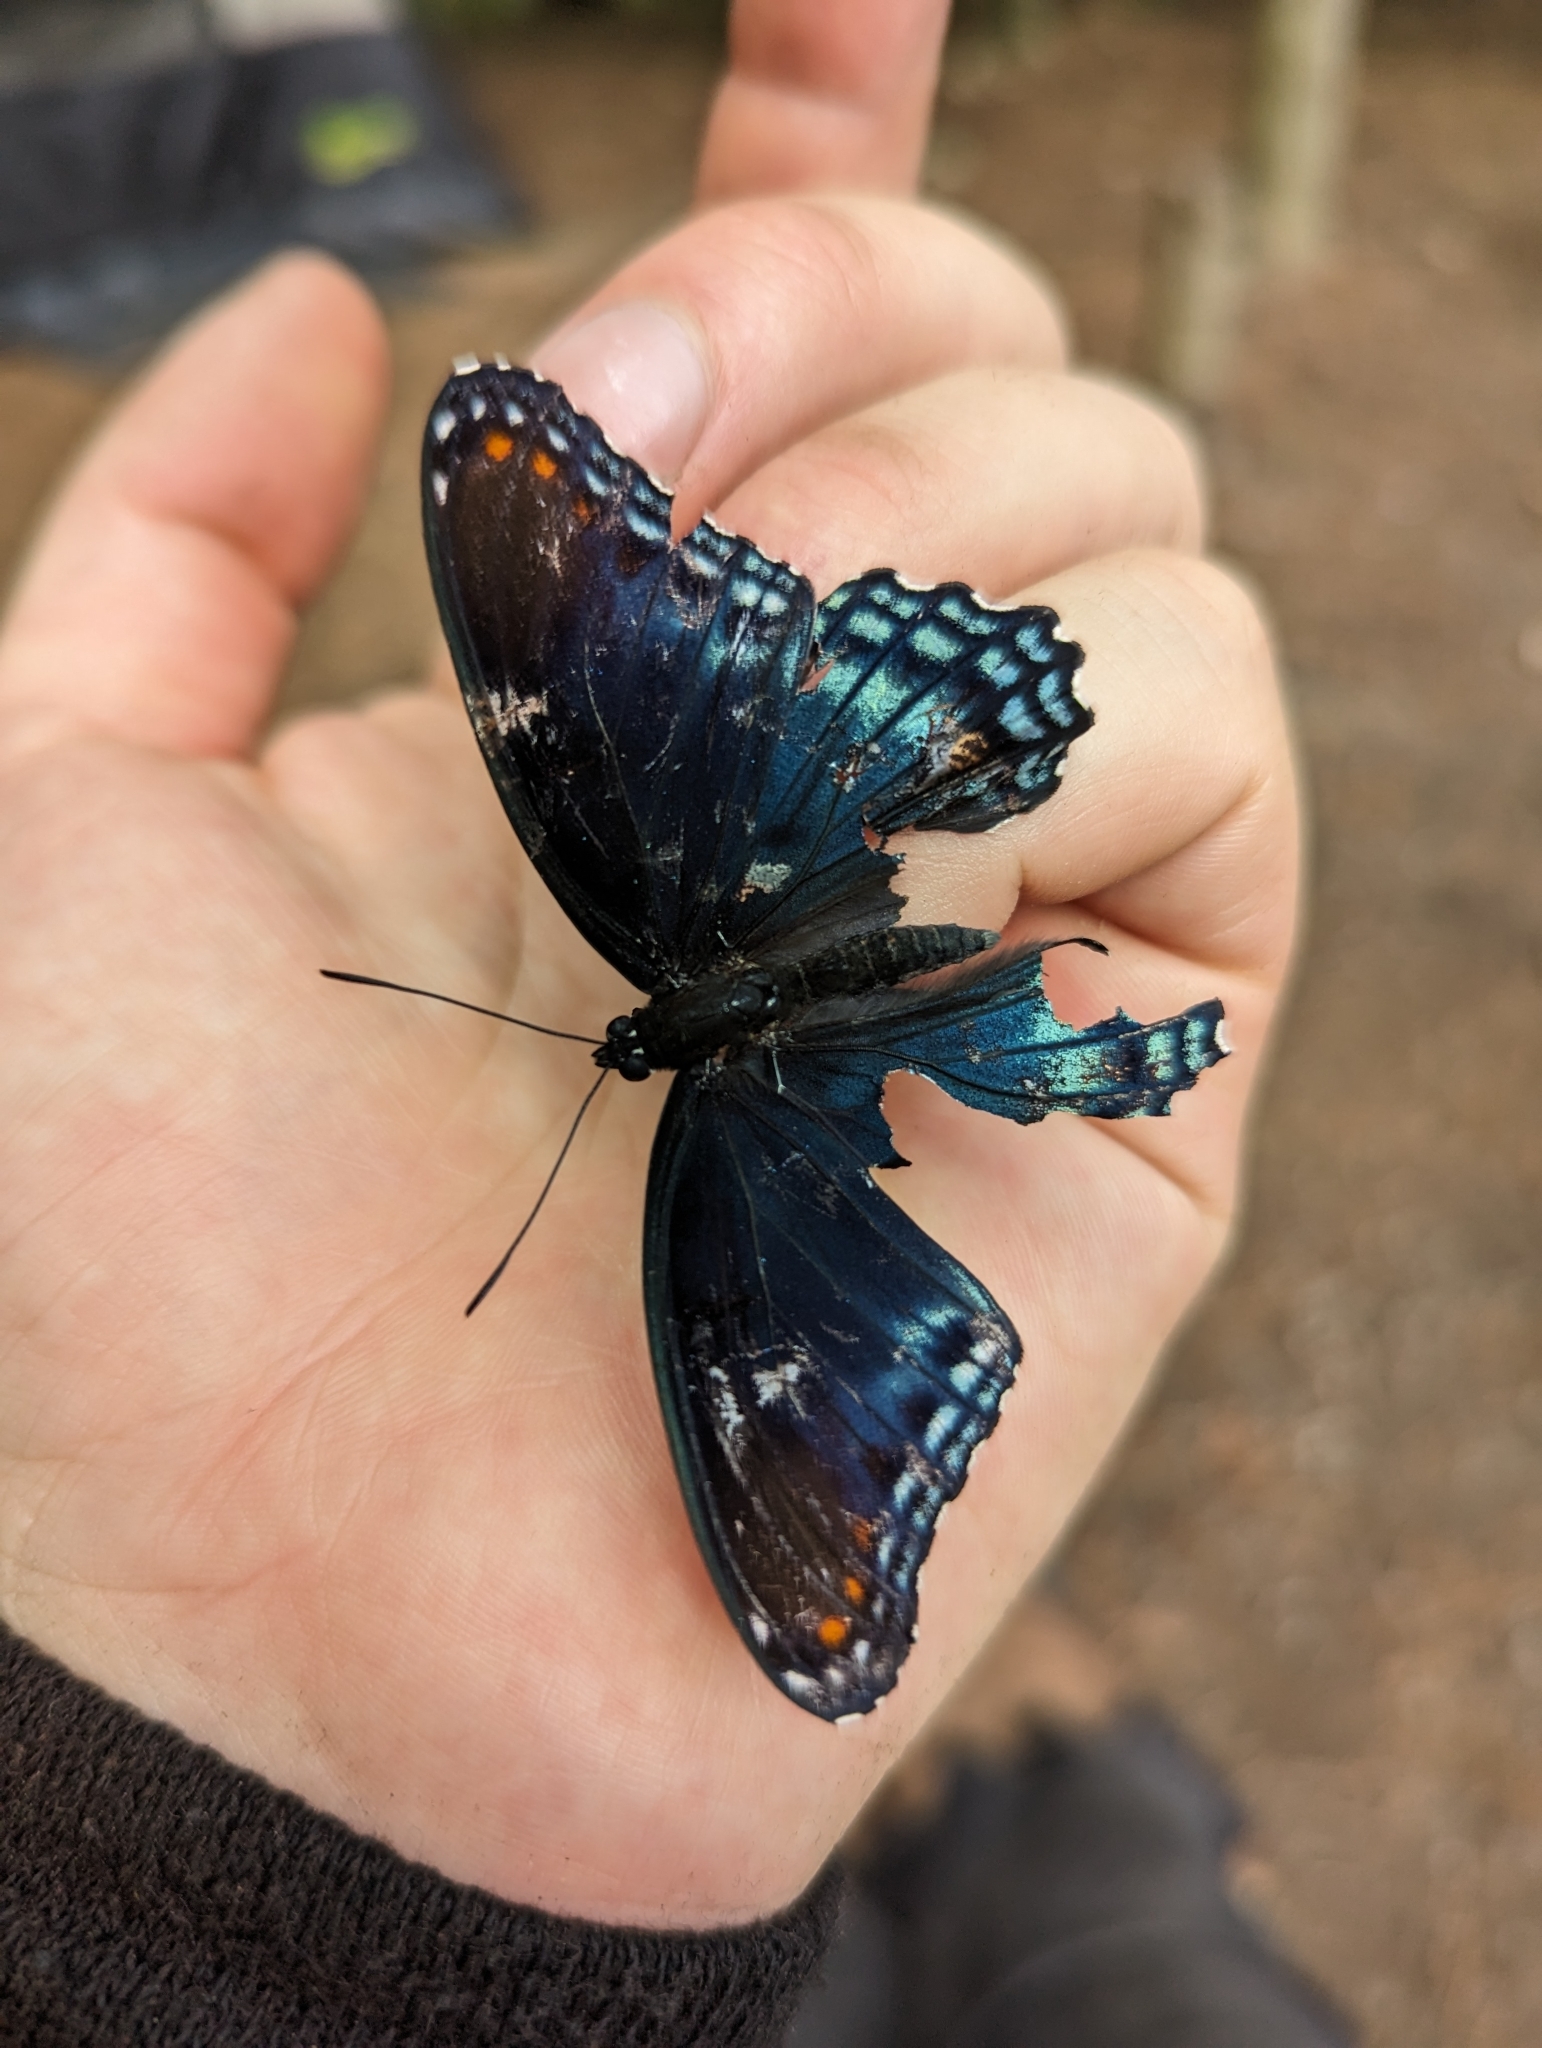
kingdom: Animalia
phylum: Arthropoda
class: Insecta
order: Lepidoptera
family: Nymphalidae
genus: Limenitis
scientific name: Limenitis arthemis
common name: Red-spotted admiral
